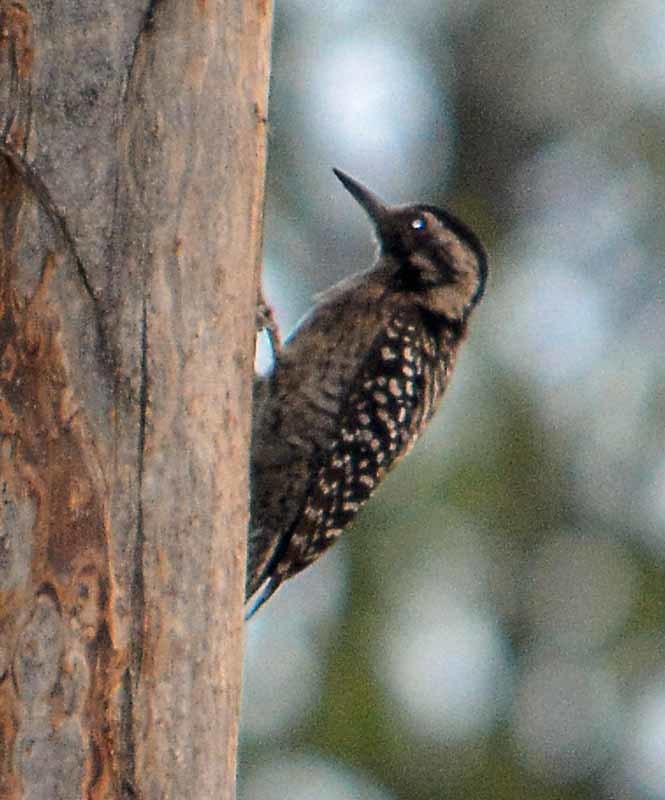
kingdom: Animalia
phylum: Chordata
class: Aves
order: Piciformes
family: Picidae
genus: Dryobates
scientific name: Dryobates scalaris
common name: Ladder-backed woodpecker
